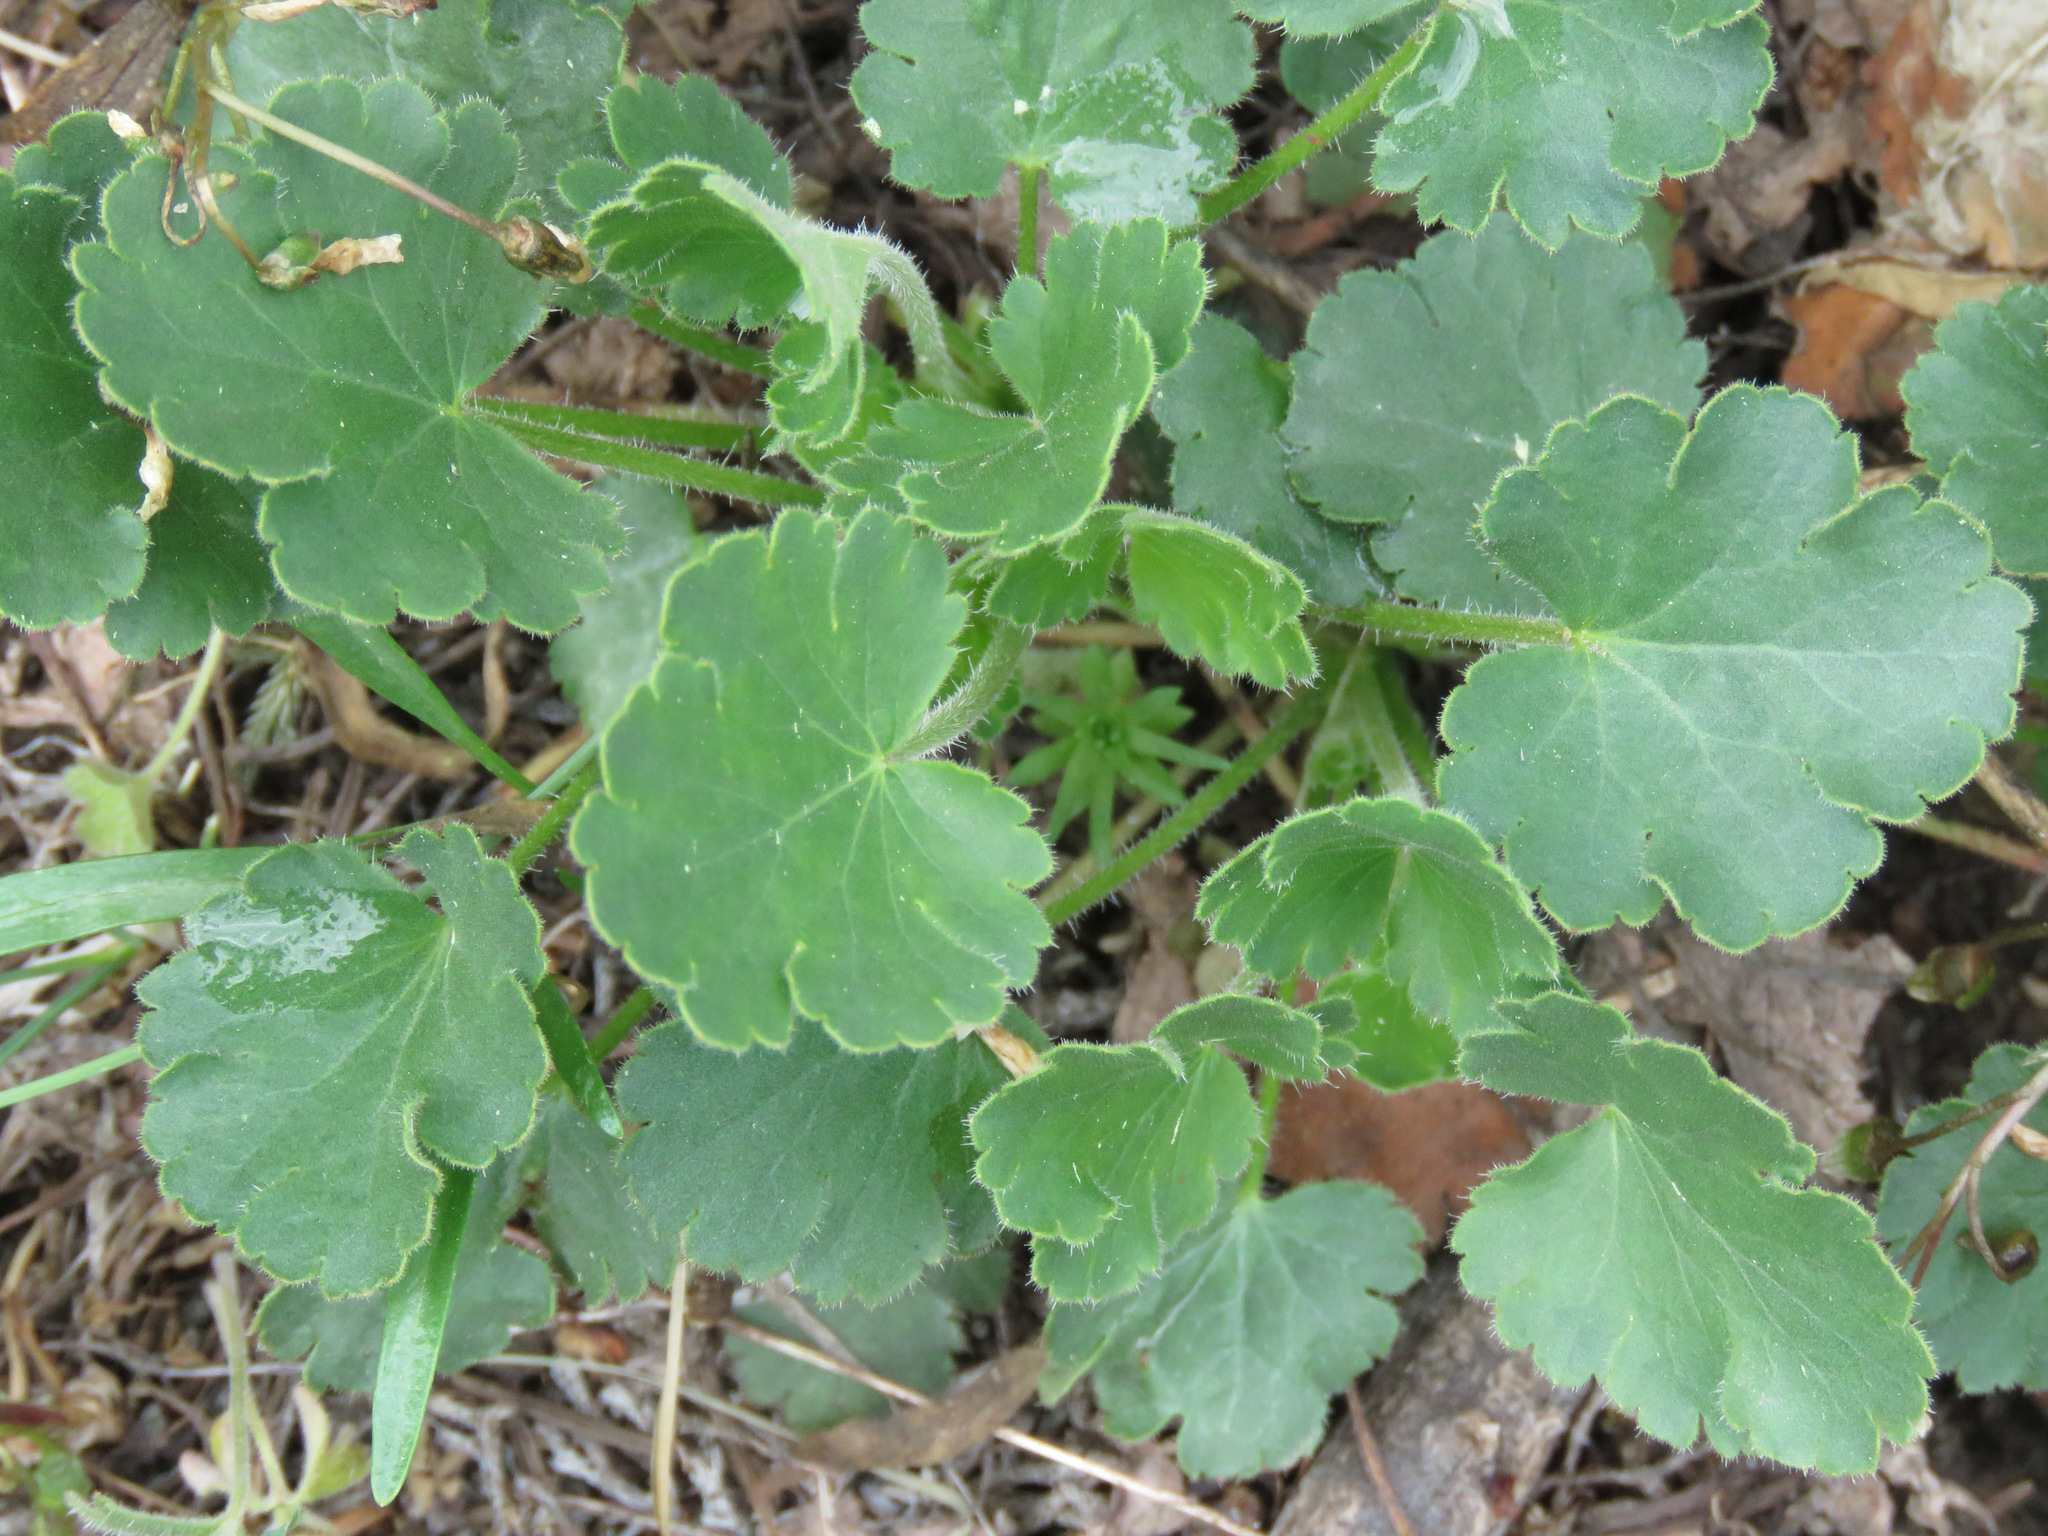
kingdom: Plantae
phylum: Tracheophyta
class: Magnoliopsida
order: Saxifragales
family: Saxifragaceae
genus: Heuchera
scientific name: Heuchera cylindrica
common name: Mat alumroot
